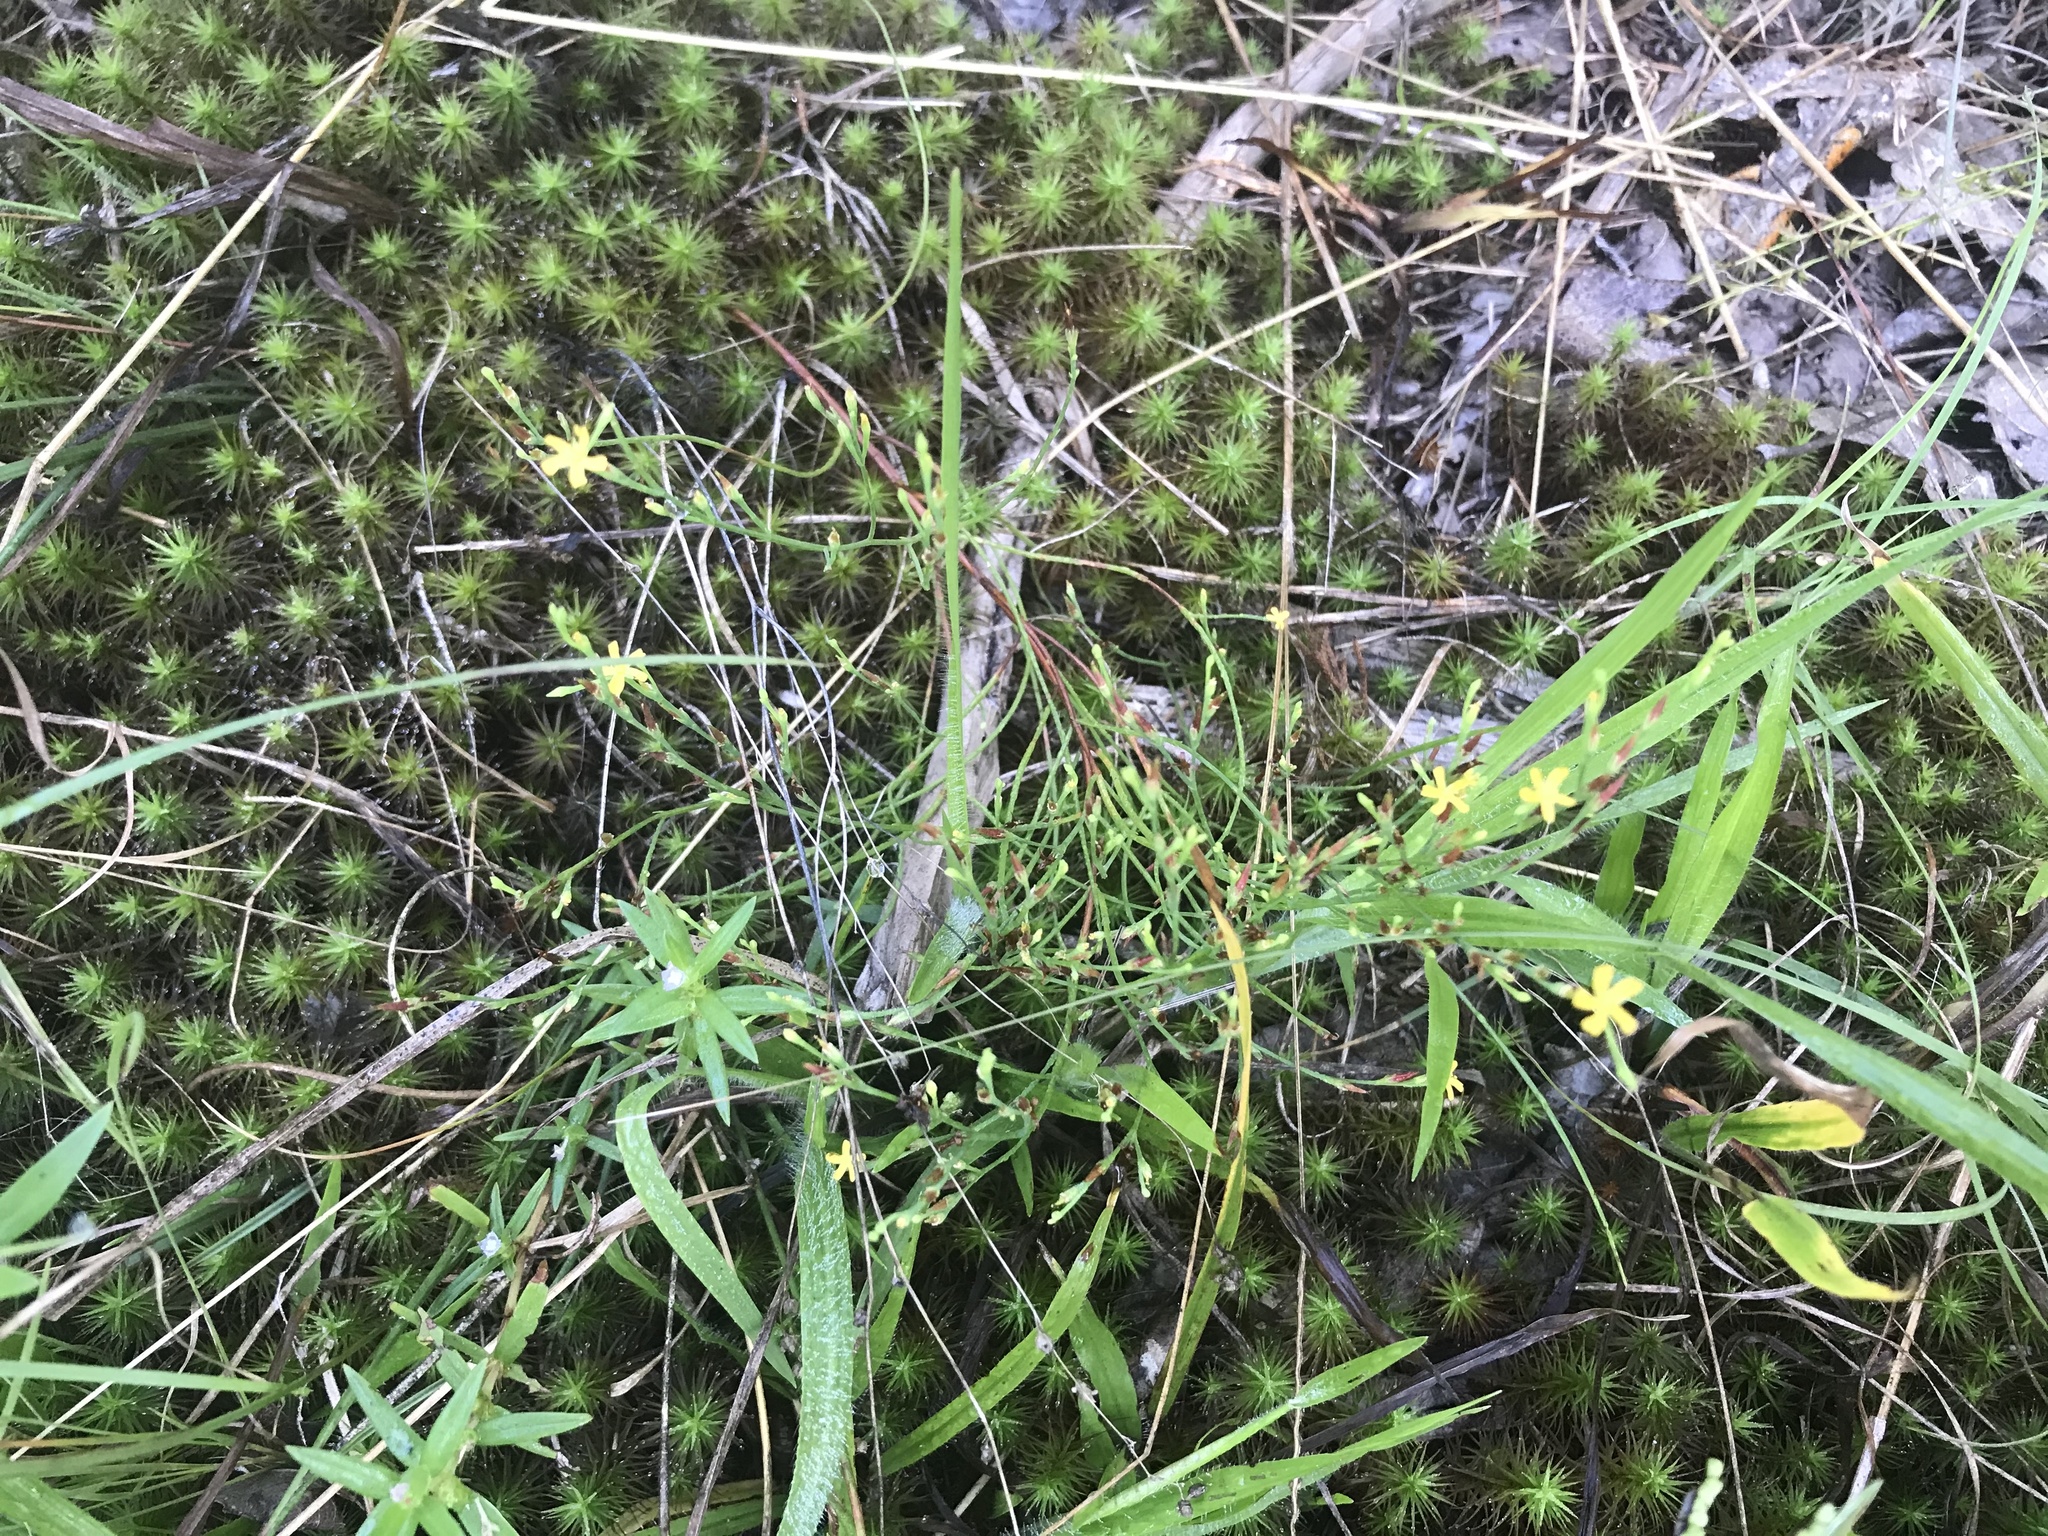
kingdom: Plantae
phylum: Tracheophyta
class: Magnoliopsida
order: Malpighiales
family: Hypericaceae
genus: Hypericum
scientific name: Hypericum gentianoides
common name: Gentian-leaved st. john's-wort
